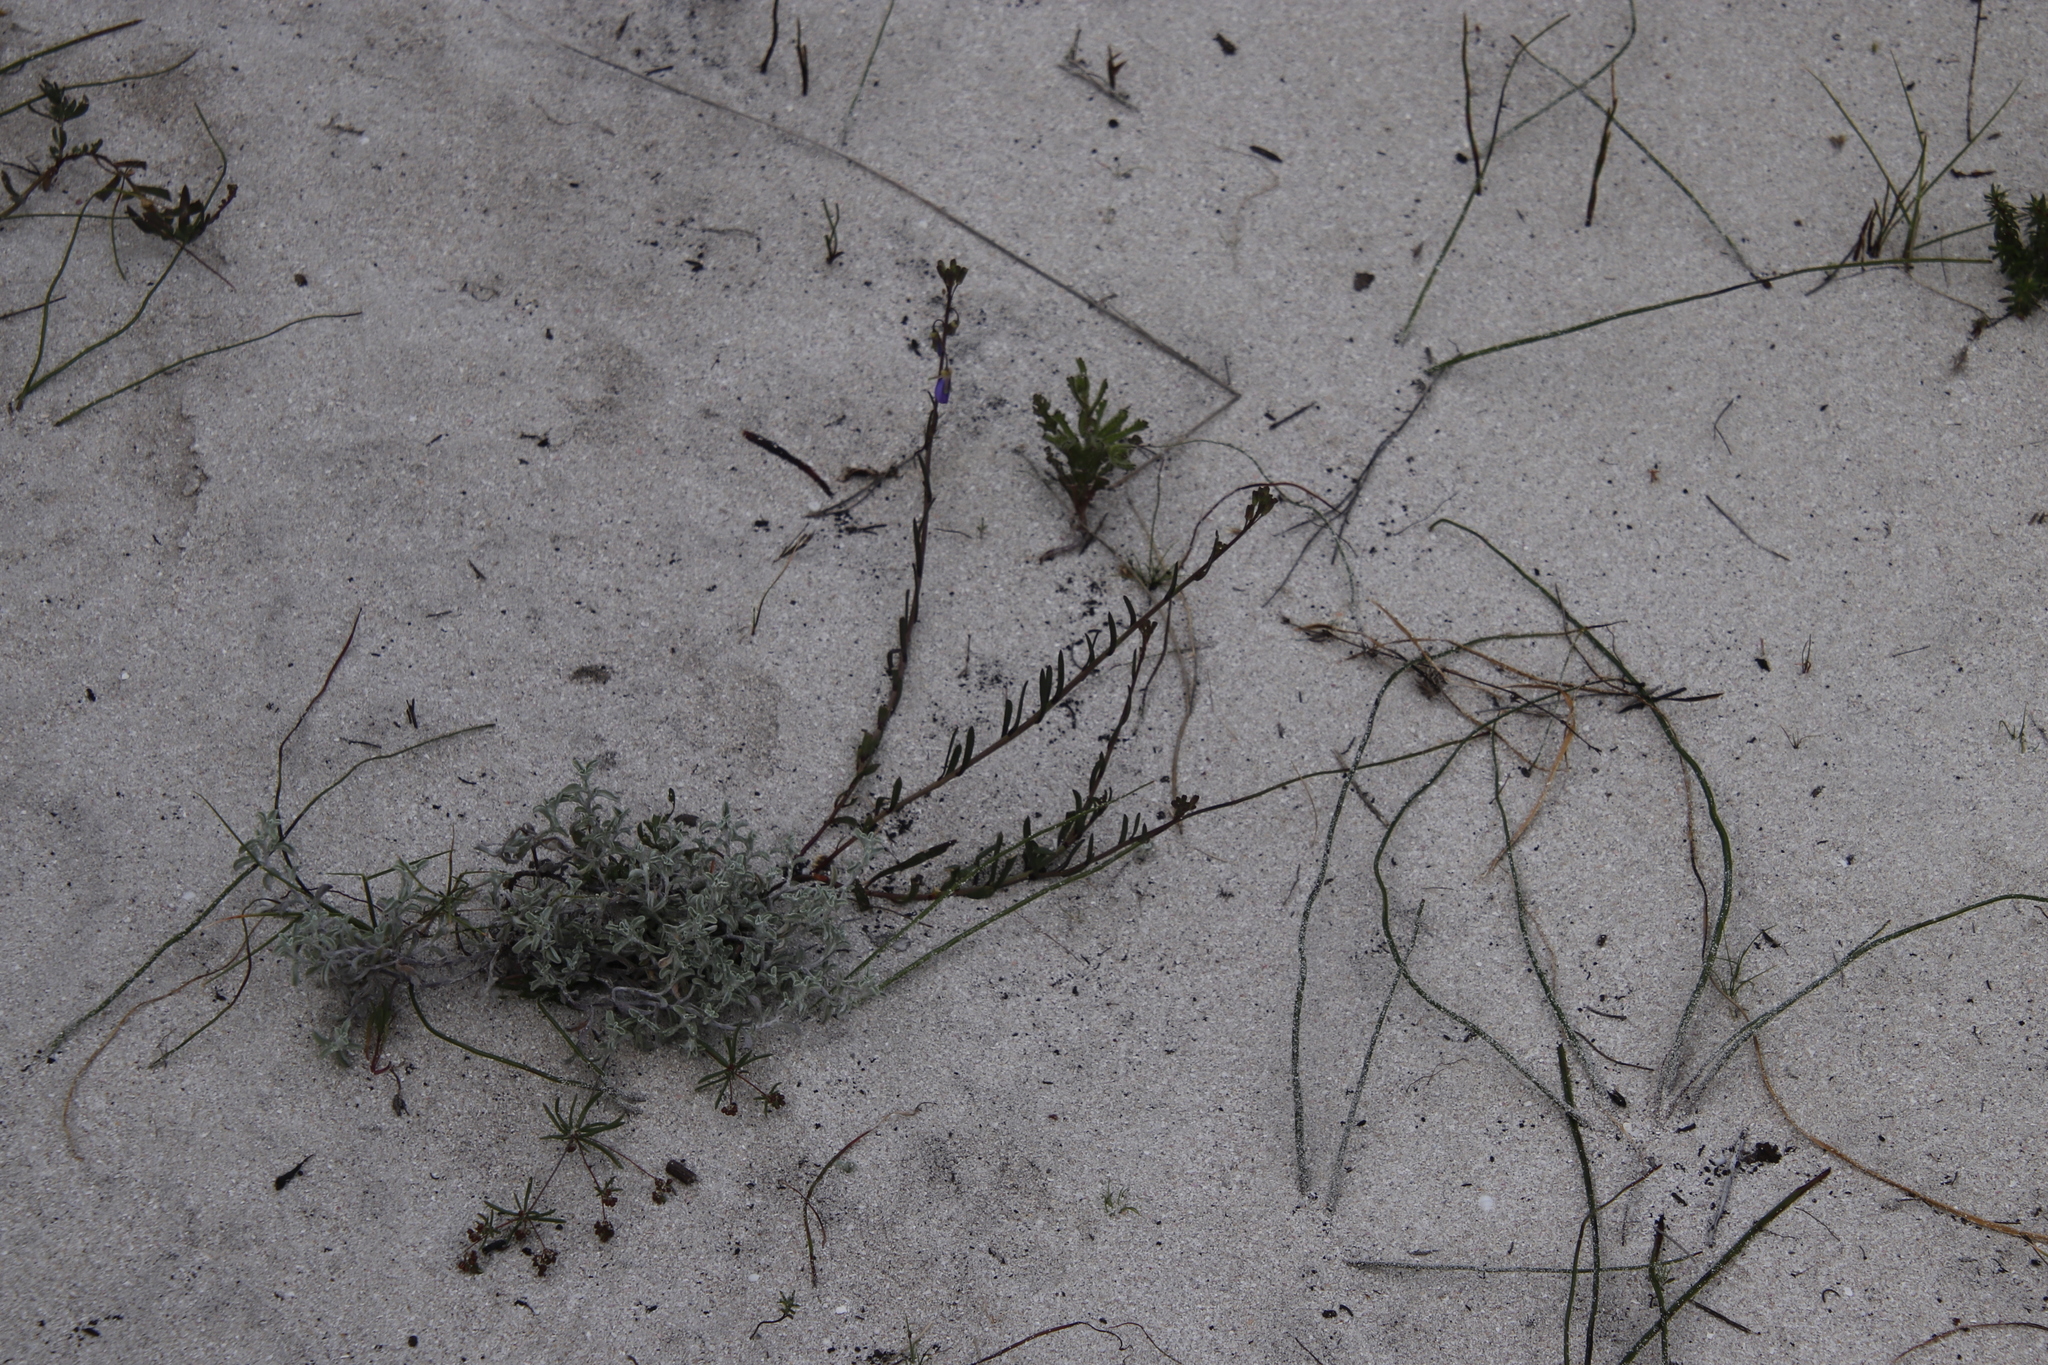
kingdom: Plantae
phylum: Tracheophyta
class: Magnoliopsida
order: Brassicales
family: Brassicaceae
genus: Heliophila
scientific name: Heliophila linearis
